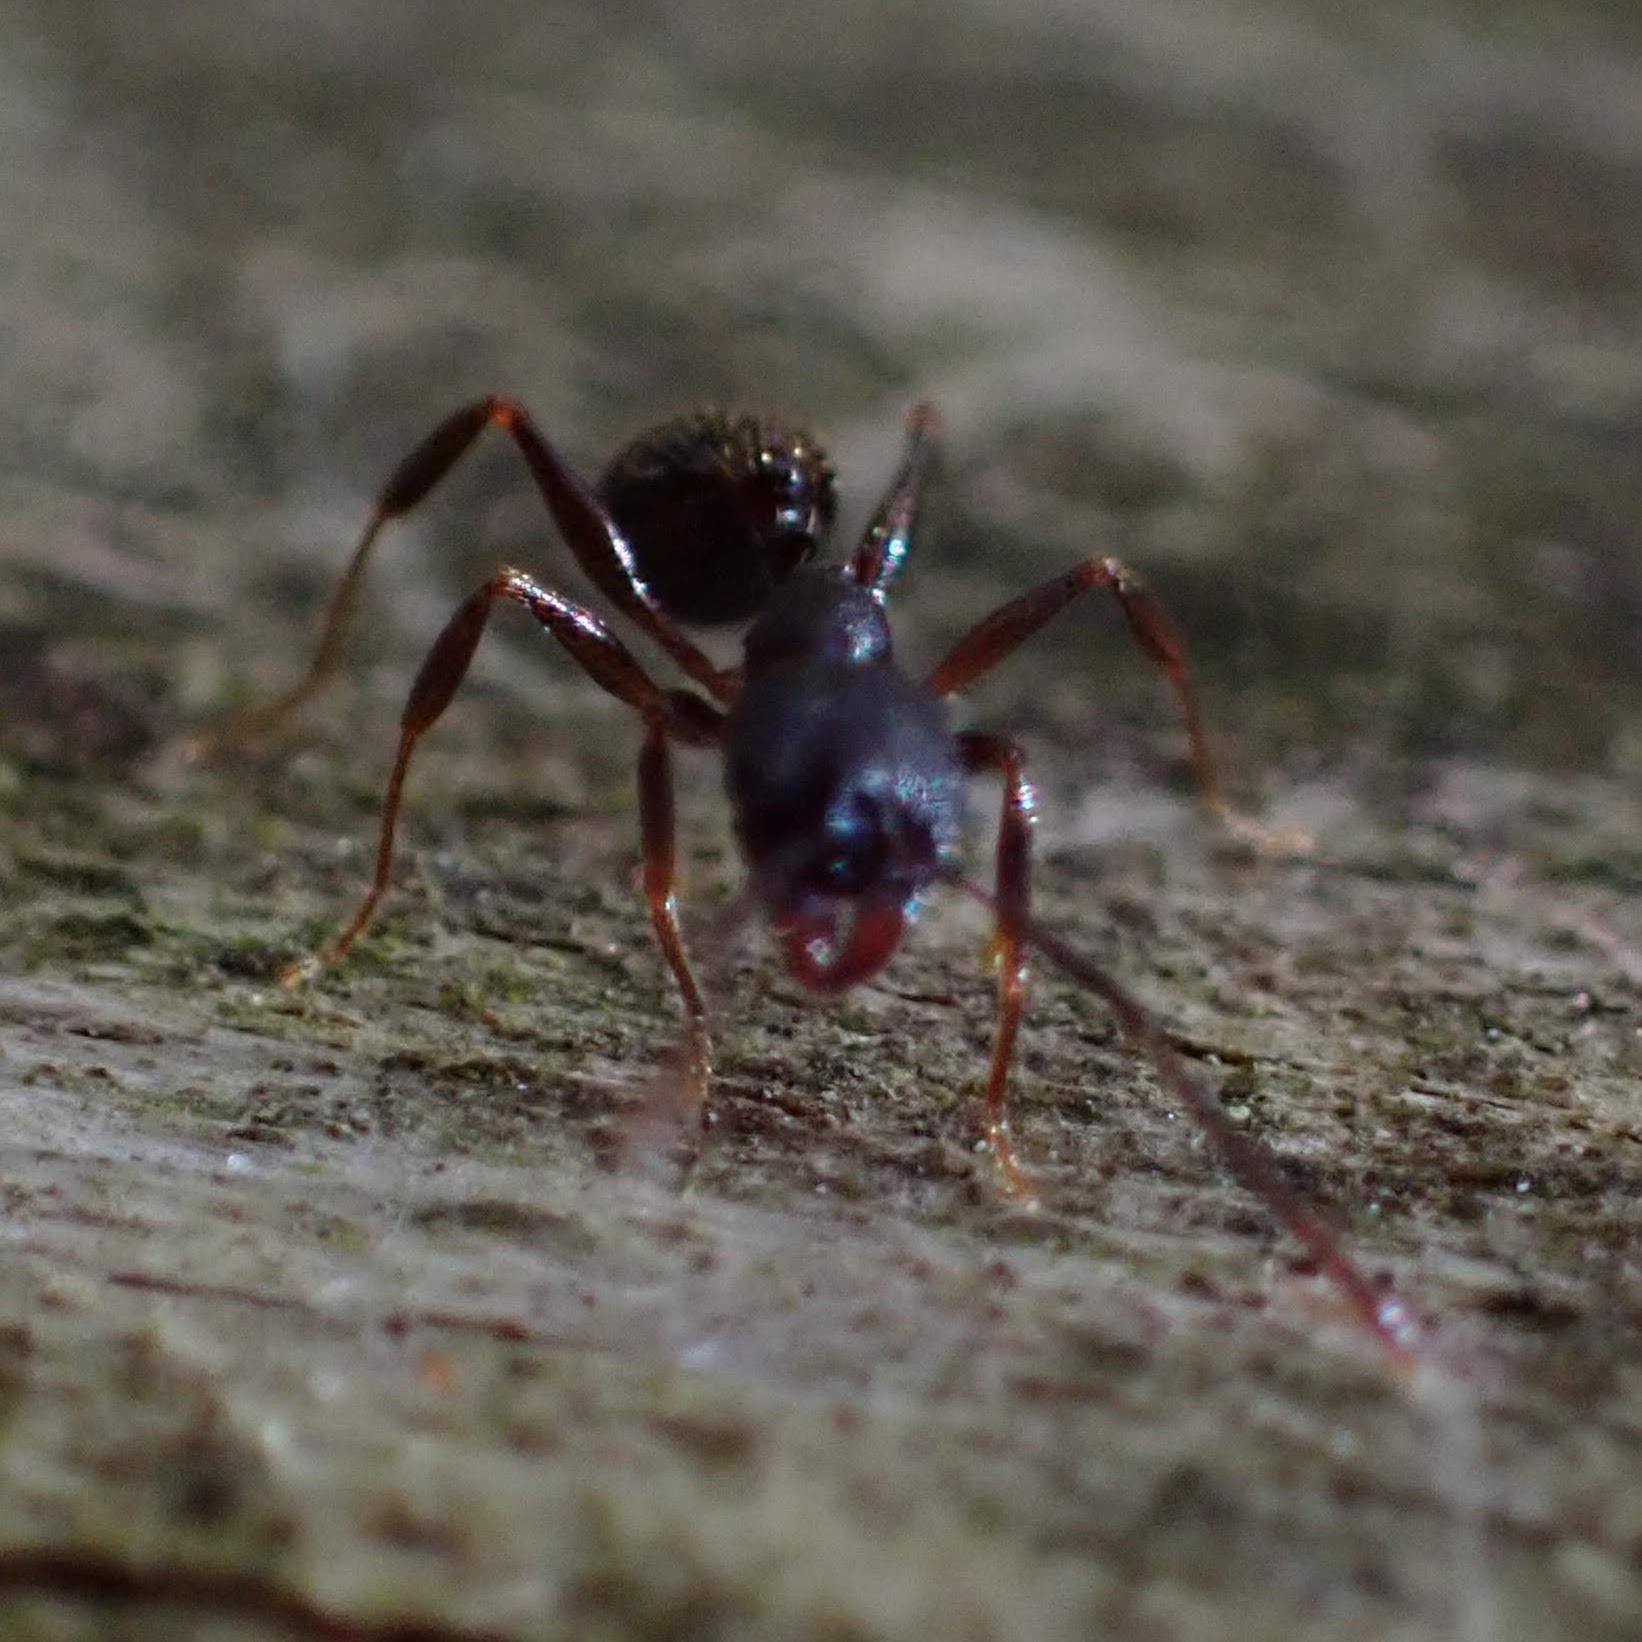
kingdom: Animalia
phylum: Arthropoda
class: Insecta
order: Hymenoptera
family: Formicidae
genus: Aphaenogaster
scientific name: Aphaenogaster picea
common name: Pitch-black collared ant
